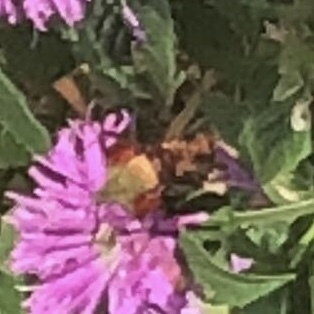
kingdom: Animalia
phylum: Arthropoda
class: Insecta
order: Lepidoptera
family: Sphingidae
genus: Hemaris
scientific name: Hemaris thysbe
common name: Common clear-wing
